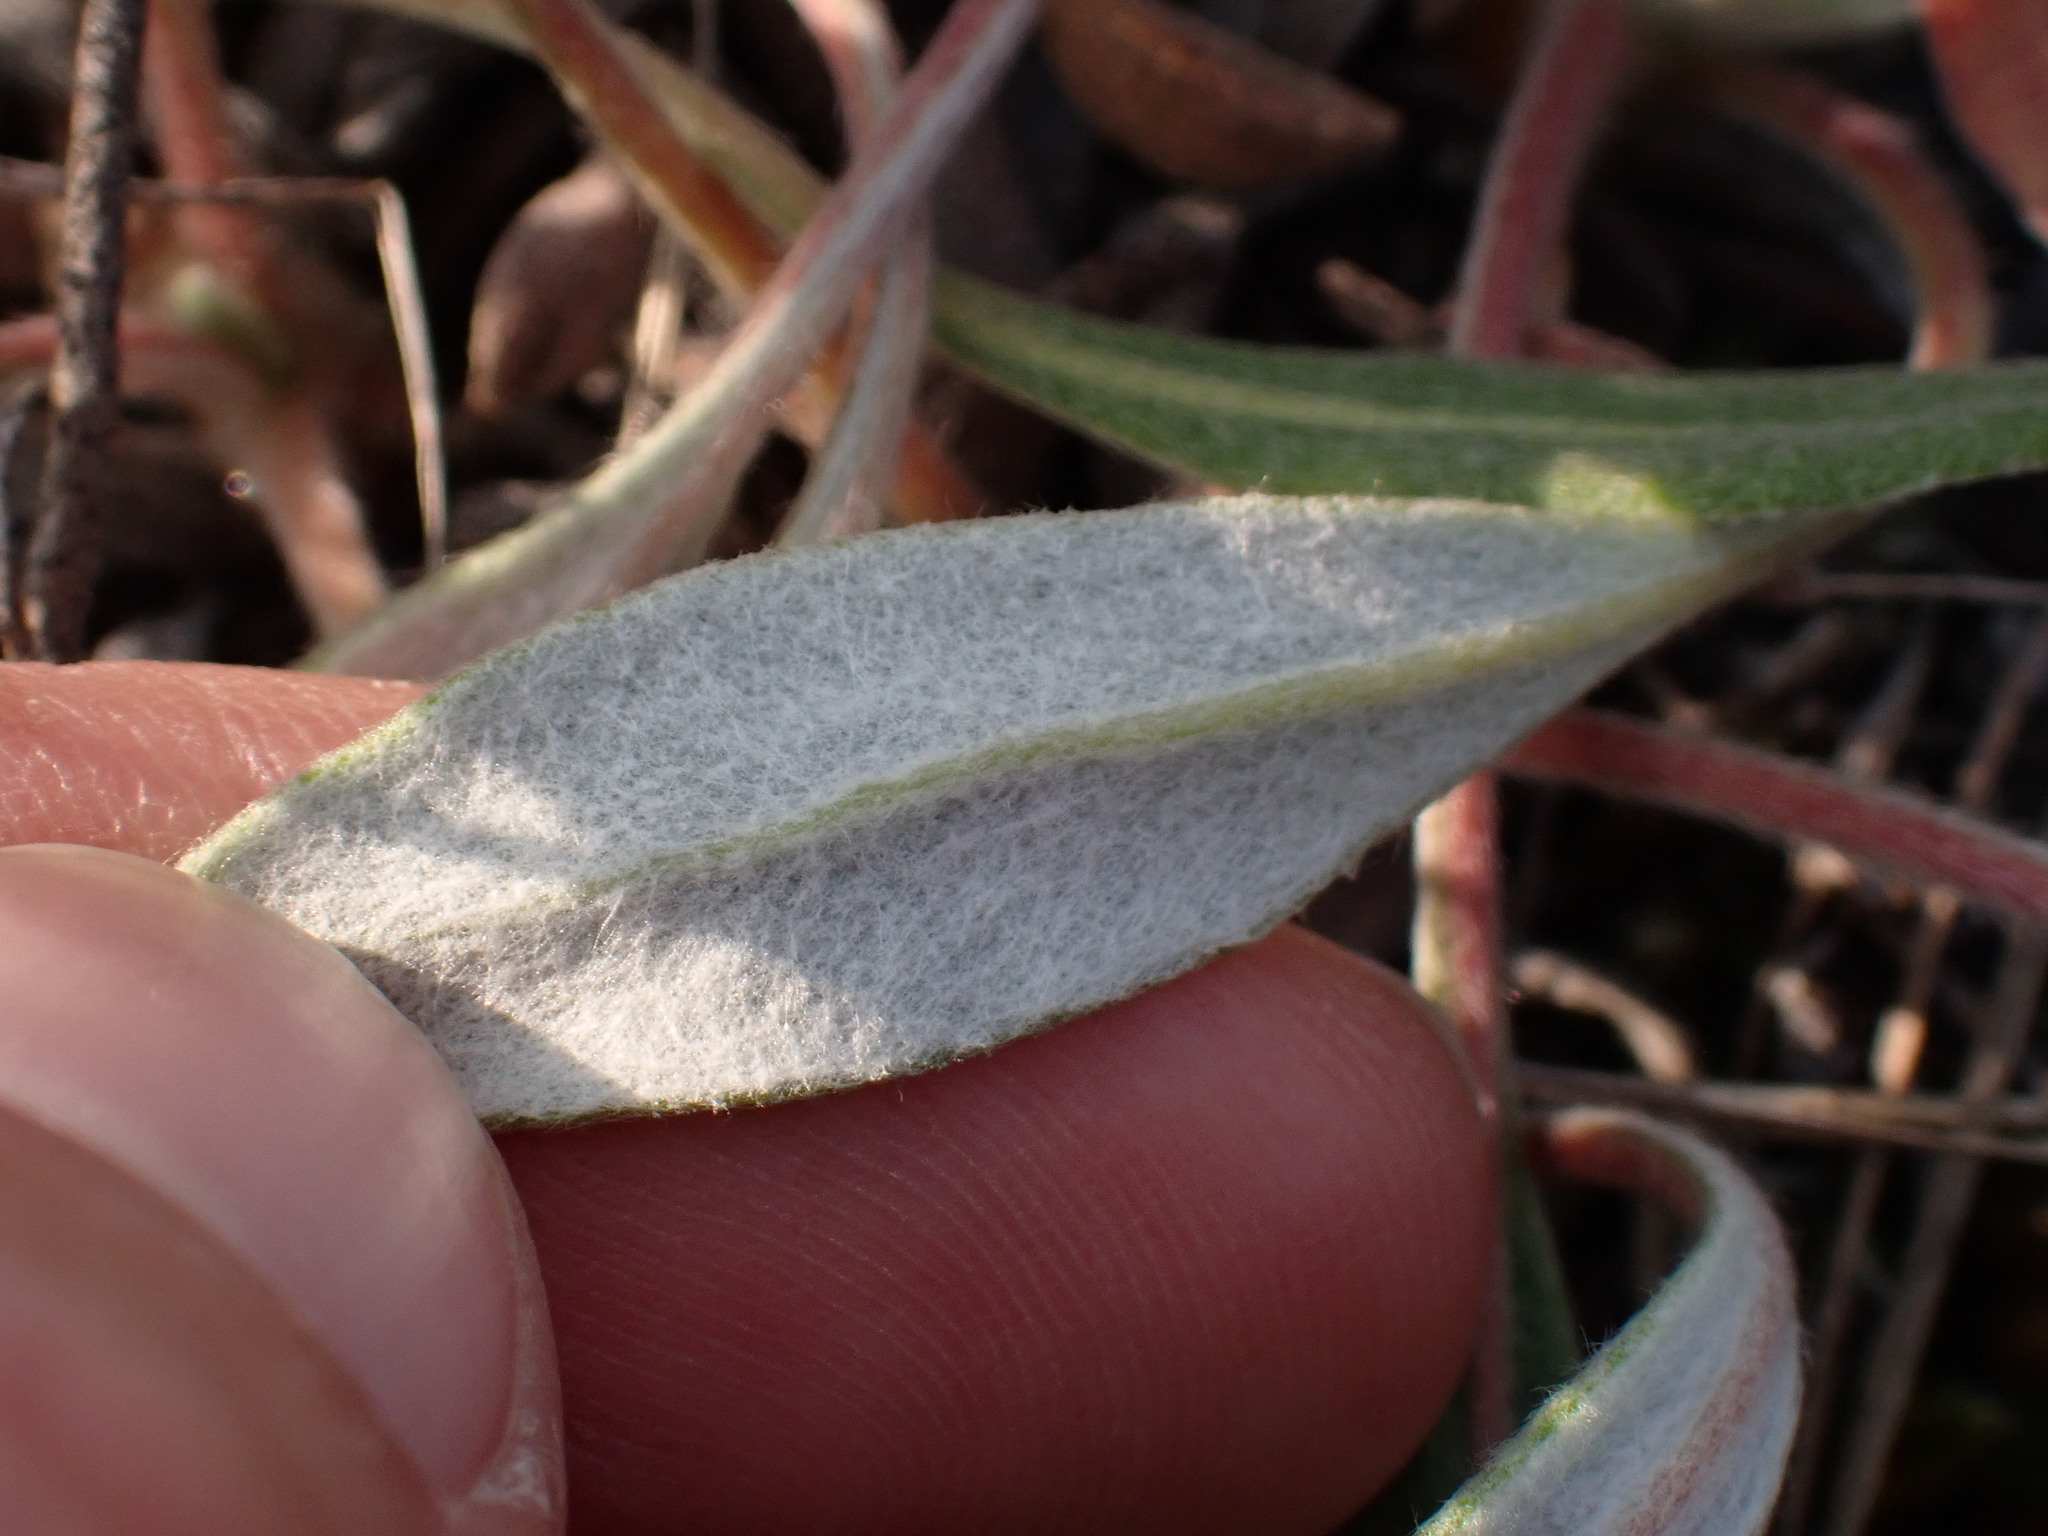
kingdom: Plantae
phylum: Tracheophyta
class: Magnoliopsida
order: Caryophyllales
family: Polygonaceae
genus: Eriogonum
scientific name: Eriogonum flavum
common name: Alpine golden wild buckwheat
